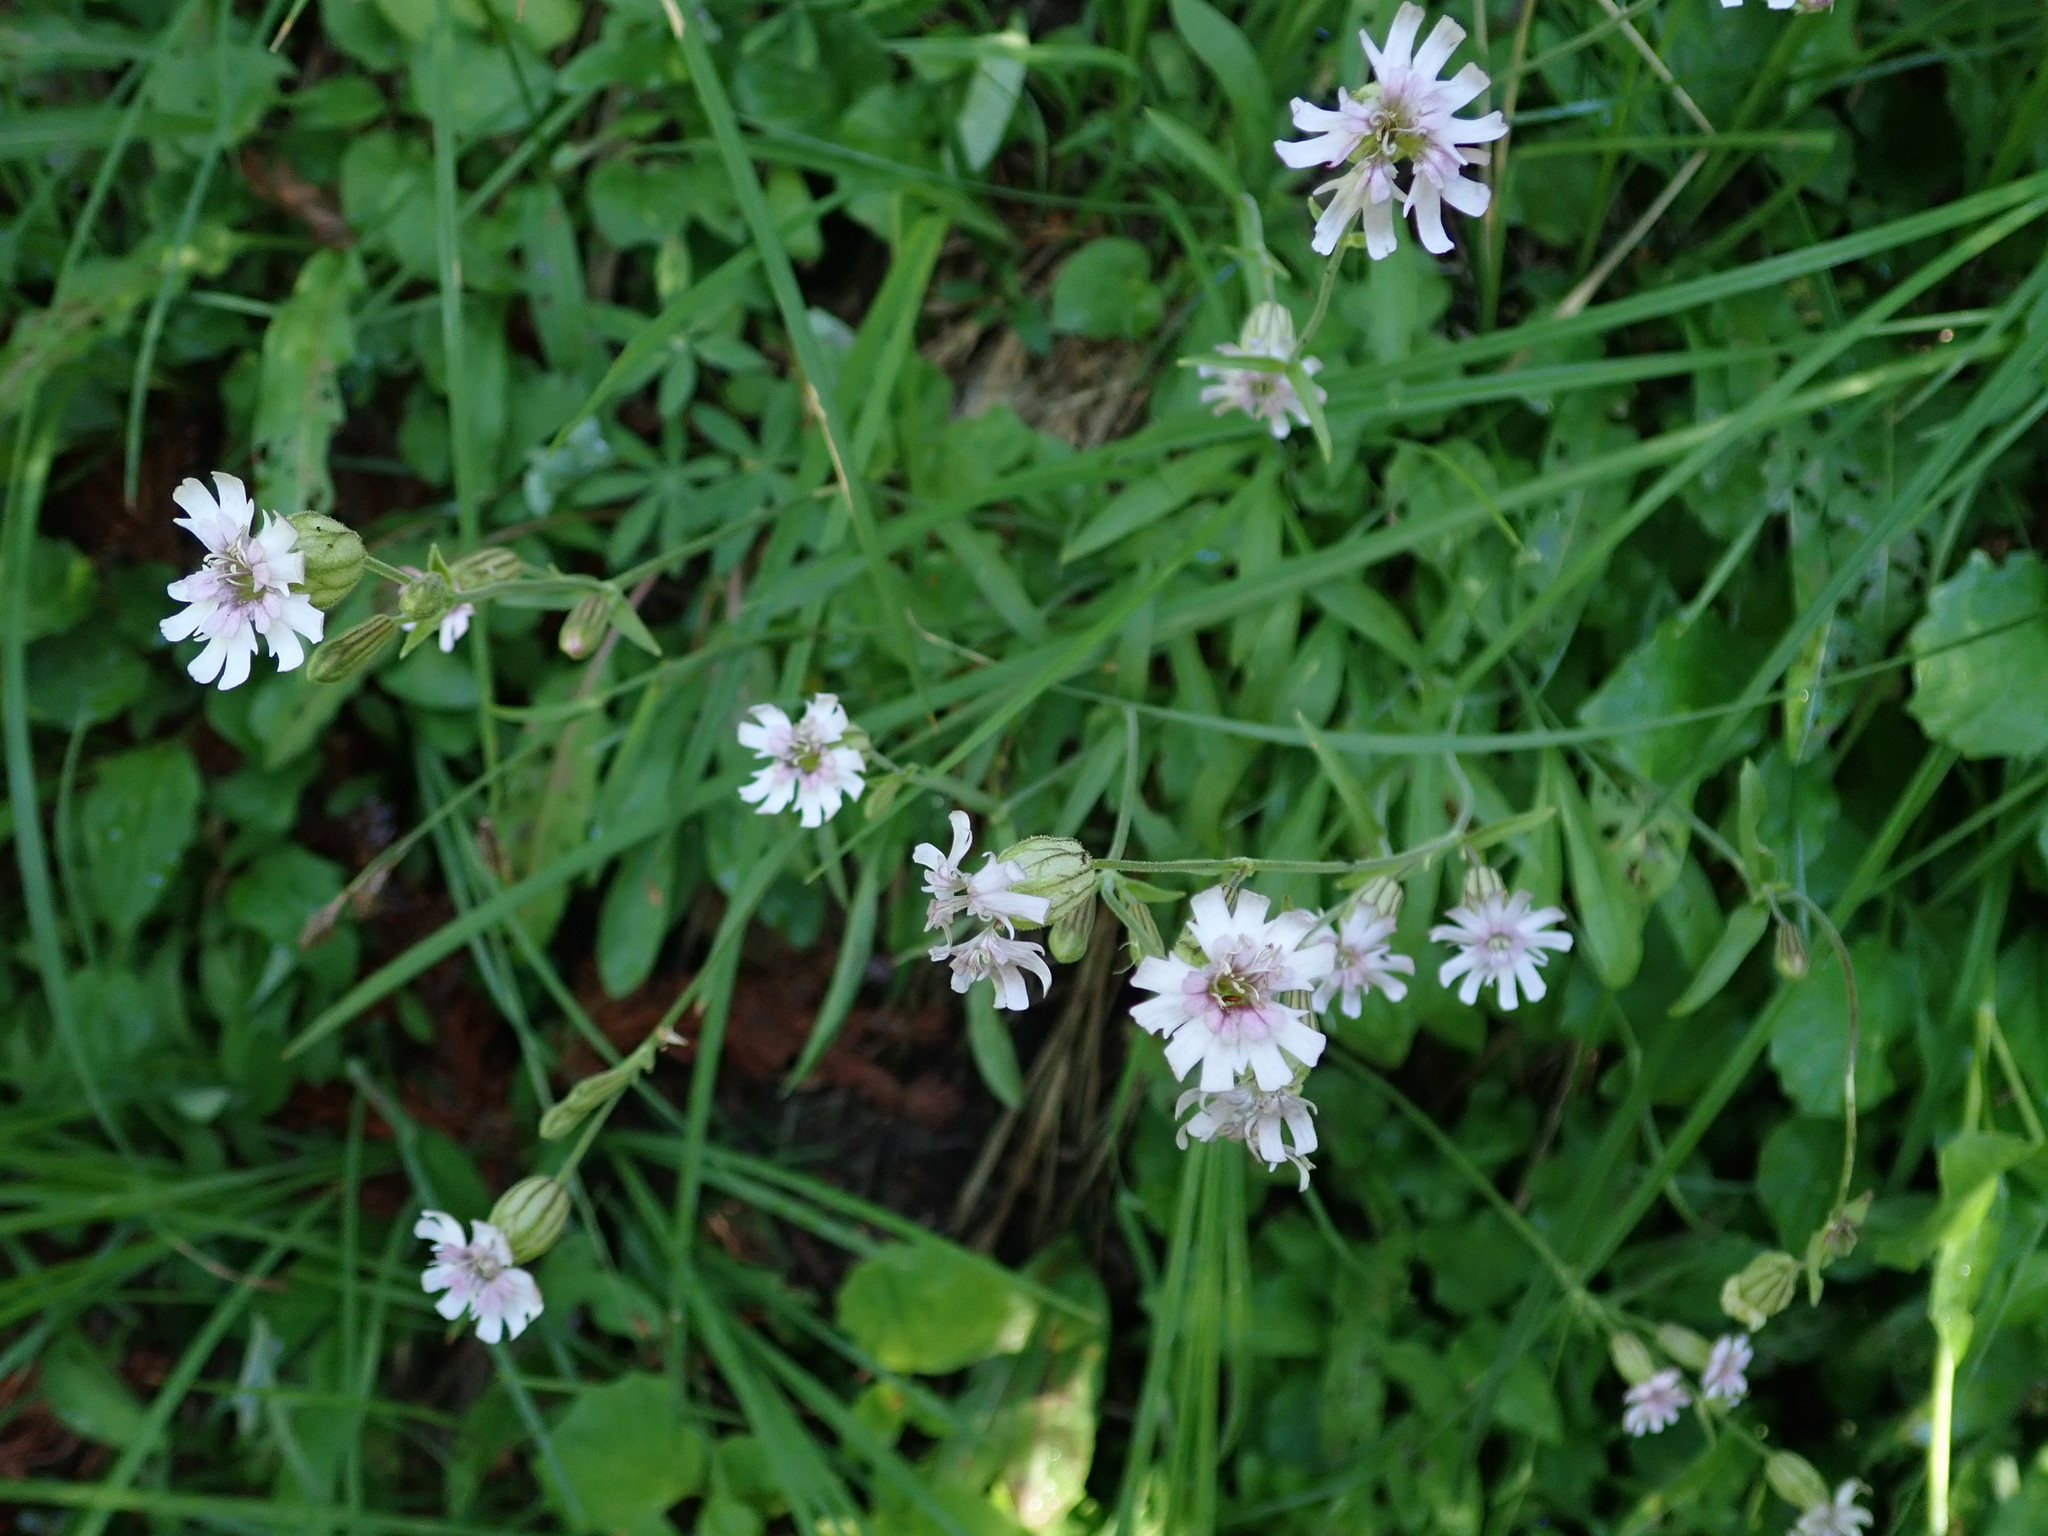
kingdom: Plantae
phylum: Tracheophyta
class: Magnoliopsida
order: Caryophyllales
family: Caryophyllaceae
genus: Silene
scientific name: Silene parryi
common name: Parry's campion
